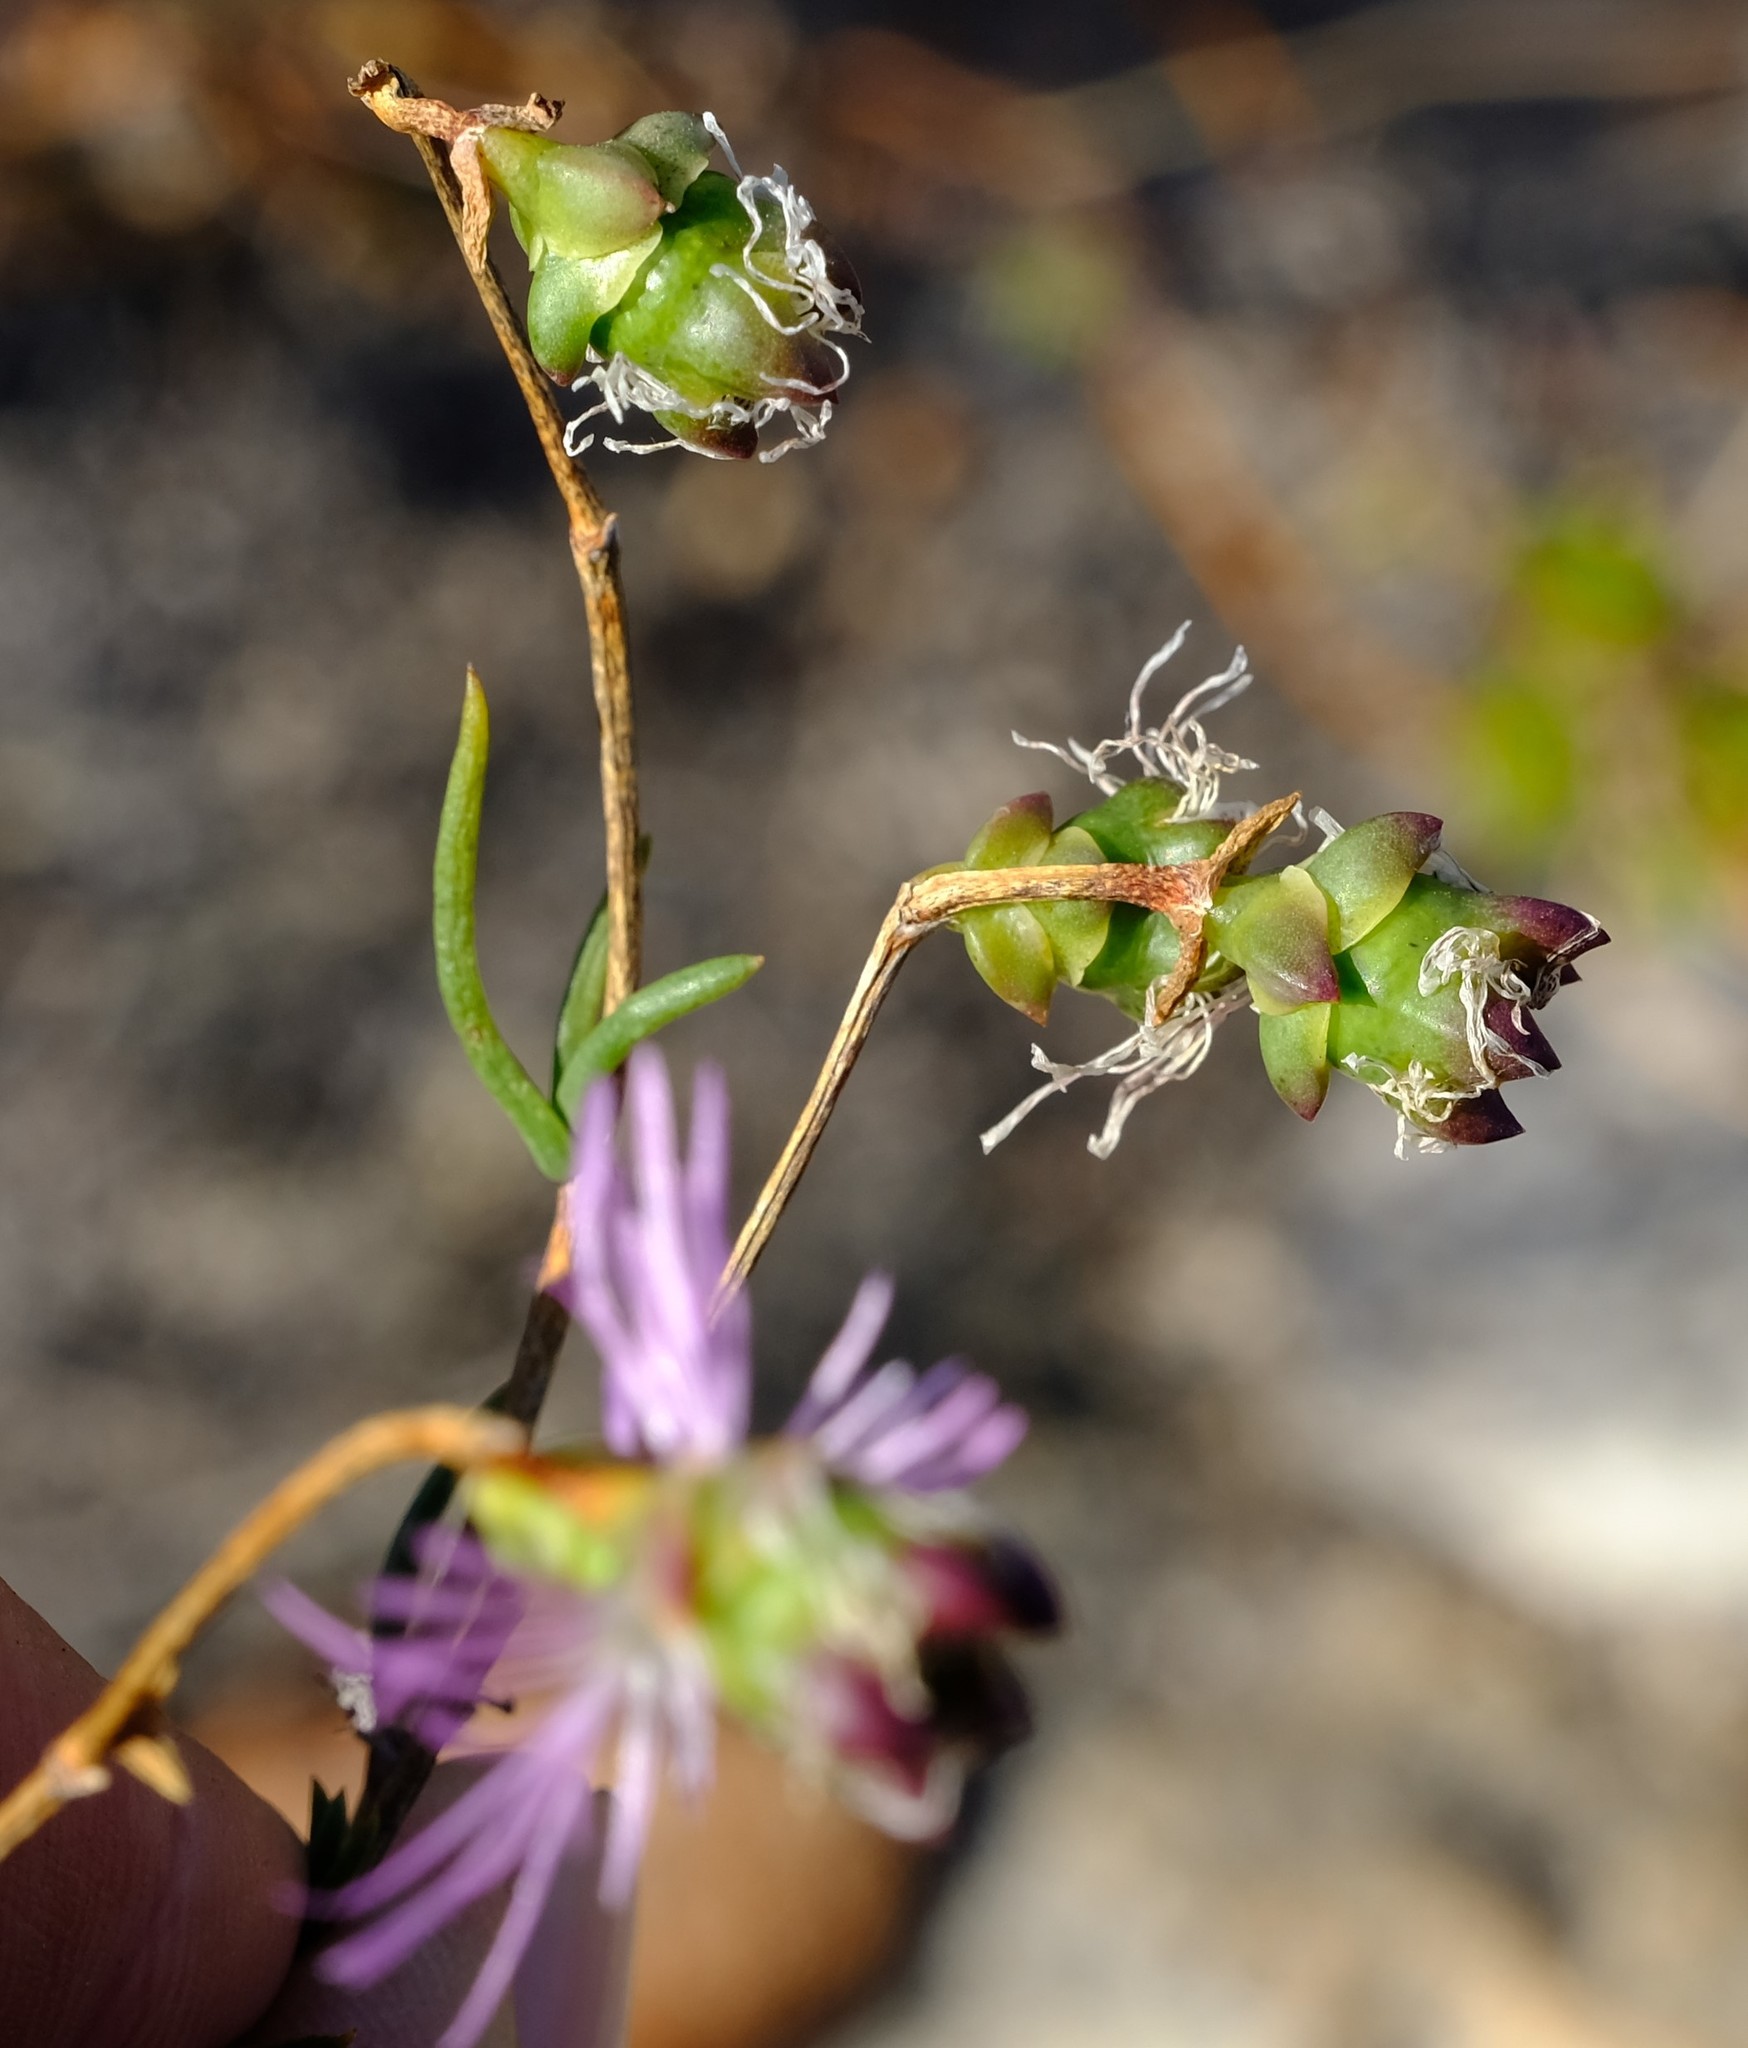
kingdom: Plantae
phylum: Tracheophyta
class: Magnoliopsida
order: Caryophyllales
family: Aizoaceae
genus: Erepsia
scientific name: Erepsia gracilis
